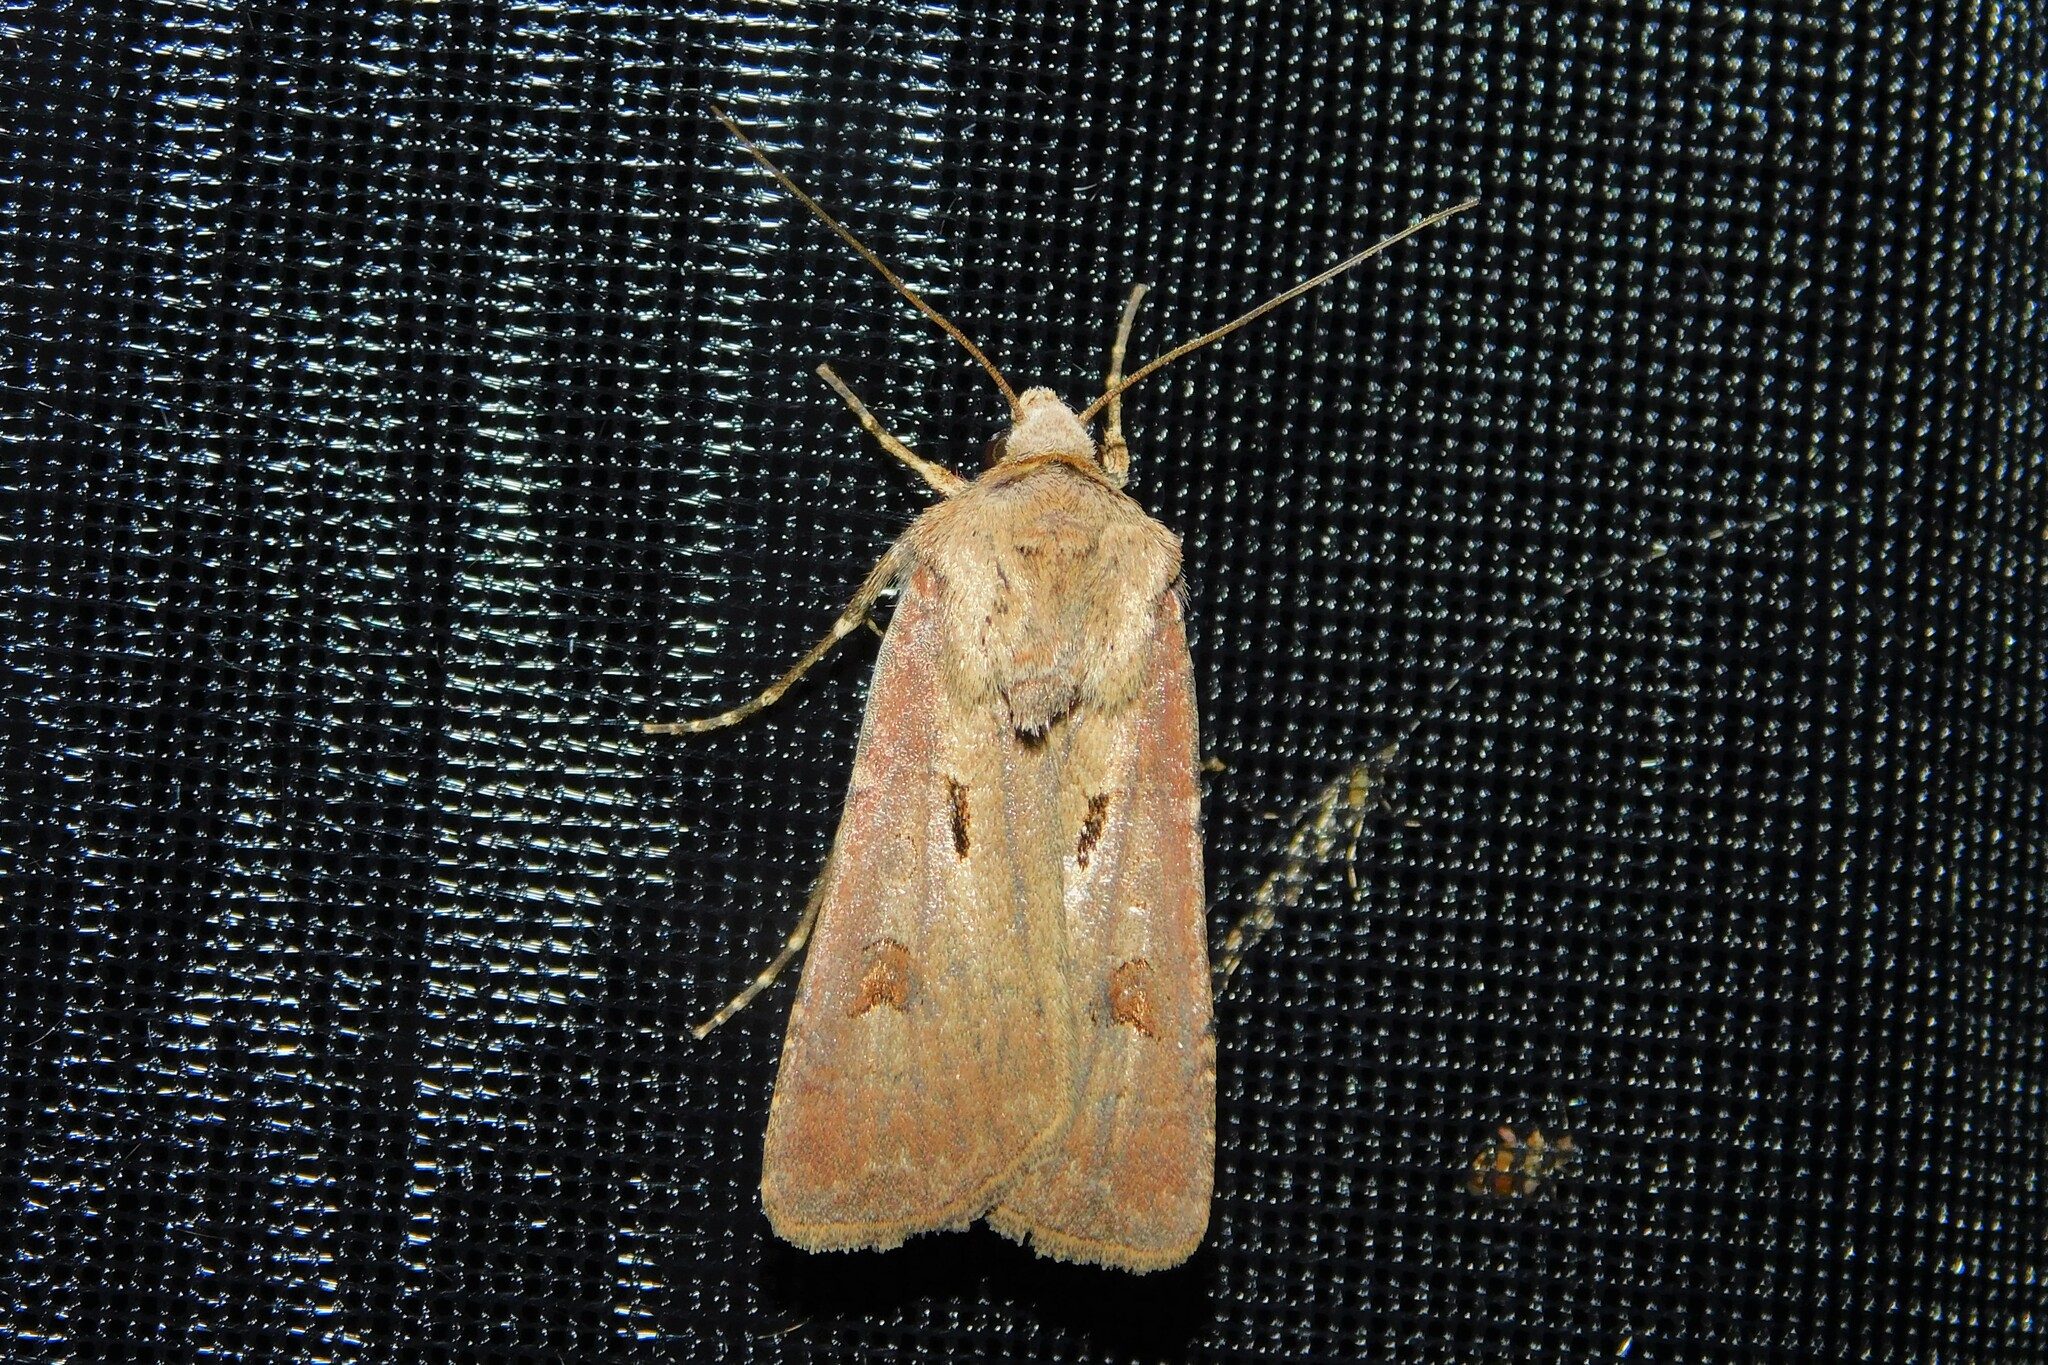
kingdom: Animalia
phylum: Arthropoda
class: Insecta
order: Lepidoptera
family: Noctuidae
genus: Agrotis
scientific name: Agrotis exclamationis
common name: Heart and dart
